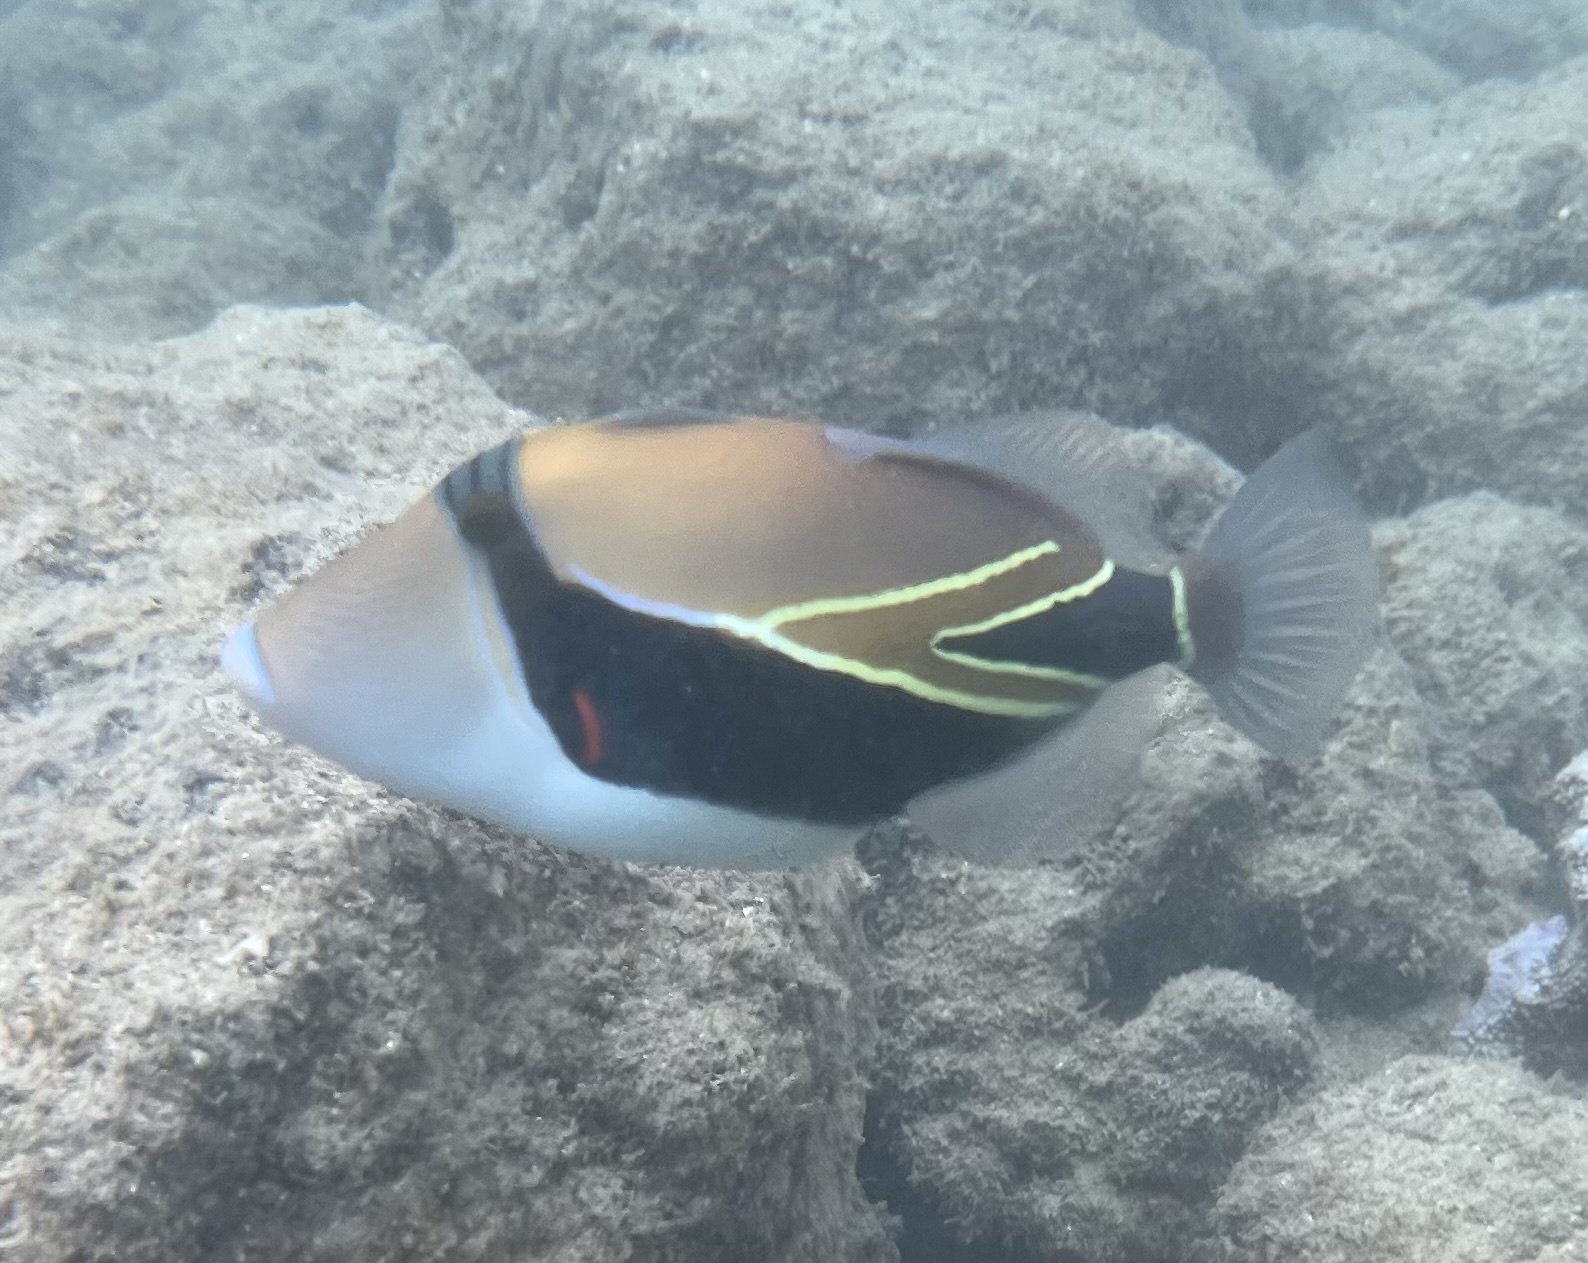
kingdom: Animalia
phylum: Chordata
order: Tetraodontiformes
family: Balistidae
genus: Rhinecanthus
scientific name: Rhinecanthus rectangulus
